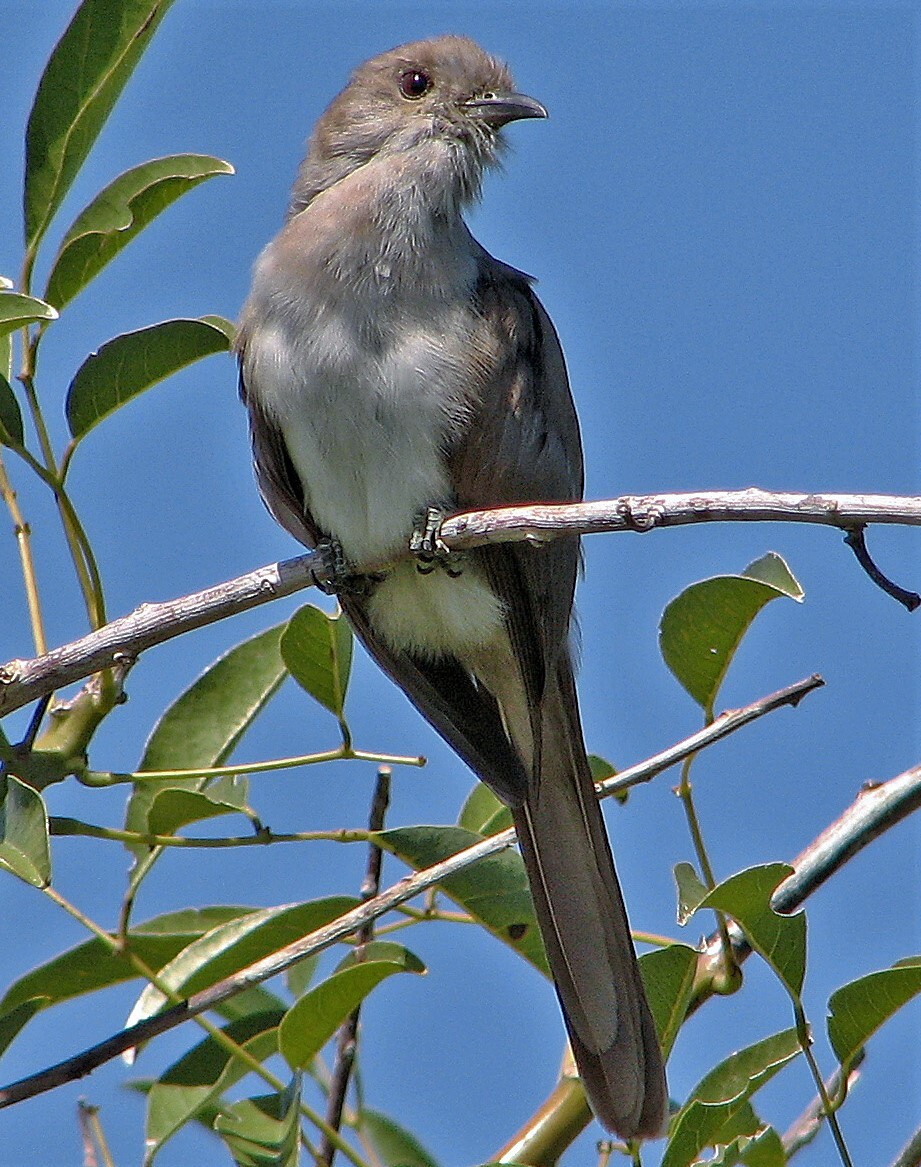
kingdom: Animalia
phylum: Chordata
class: Aves
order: Cuculiformes
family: Cuculidae
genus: Coccyzus
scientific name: Coccyzus cinereus
